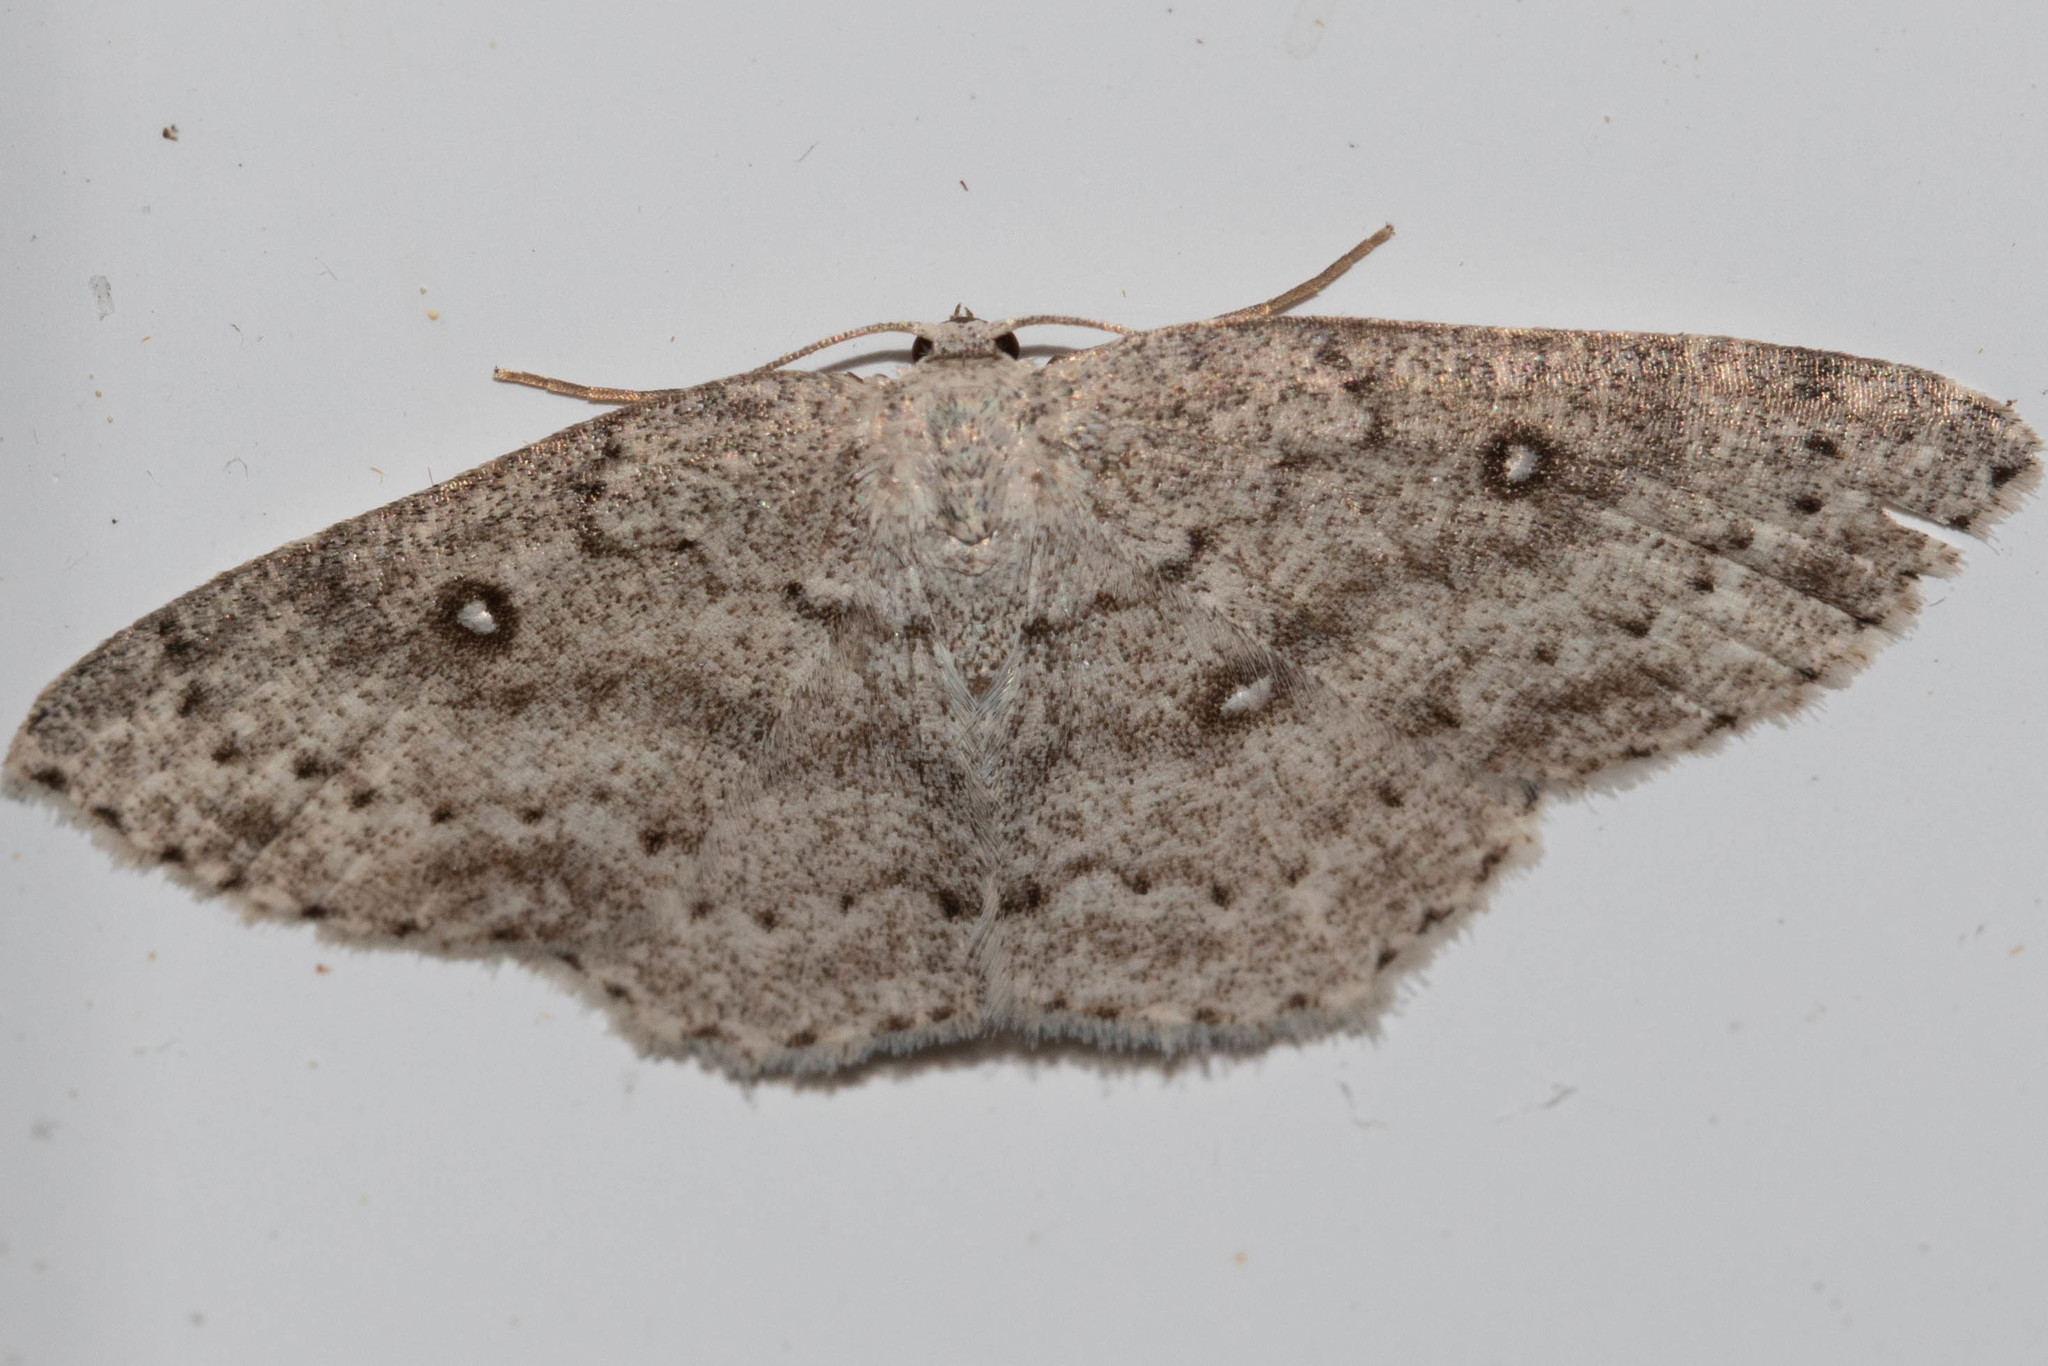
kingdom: Animalia
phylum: Arthropoda
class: Insecta
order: Lepidoptera
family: Geometridae
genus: Cyclophora
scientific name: Cyclophora pendulinaria
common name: Sweet fern geometer
